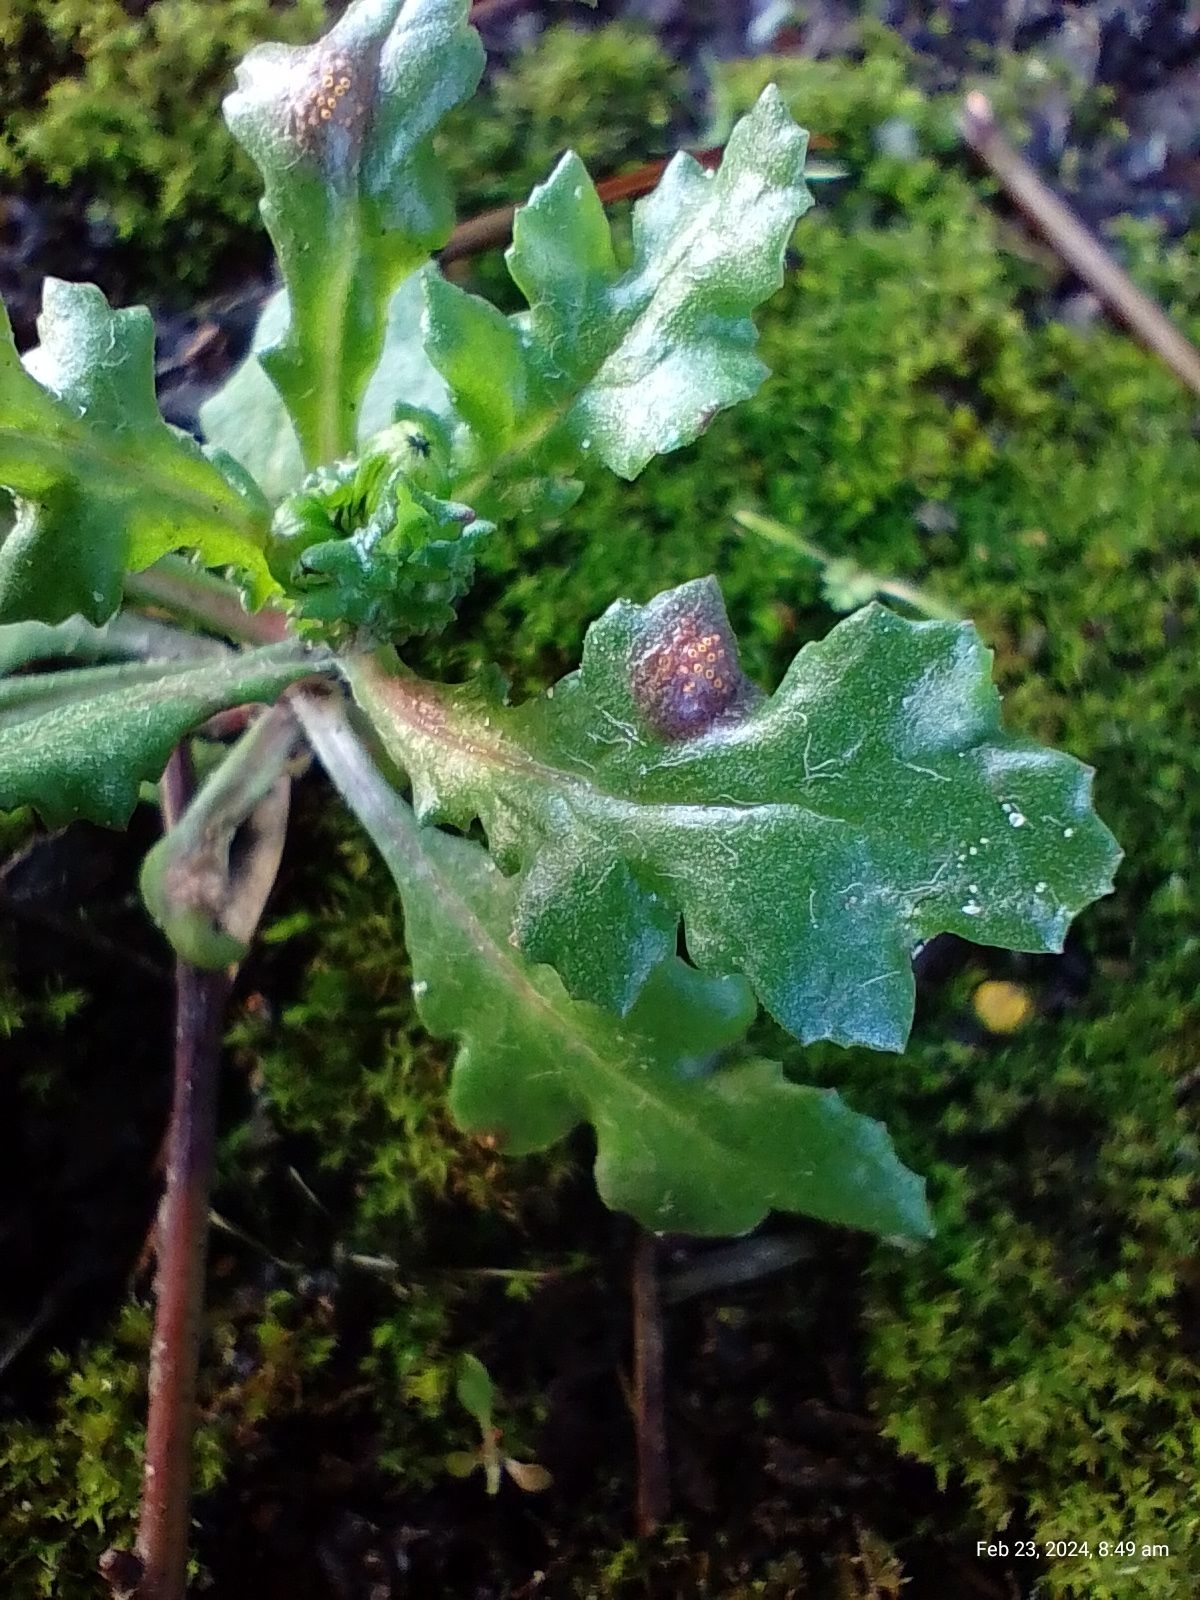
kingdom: Fungi
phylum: Basidiomycota
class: Pucciniomycetes
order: Pucciniales
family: Pucciniaceae
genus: Puccinia
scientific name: Puccinia lagenophorae
